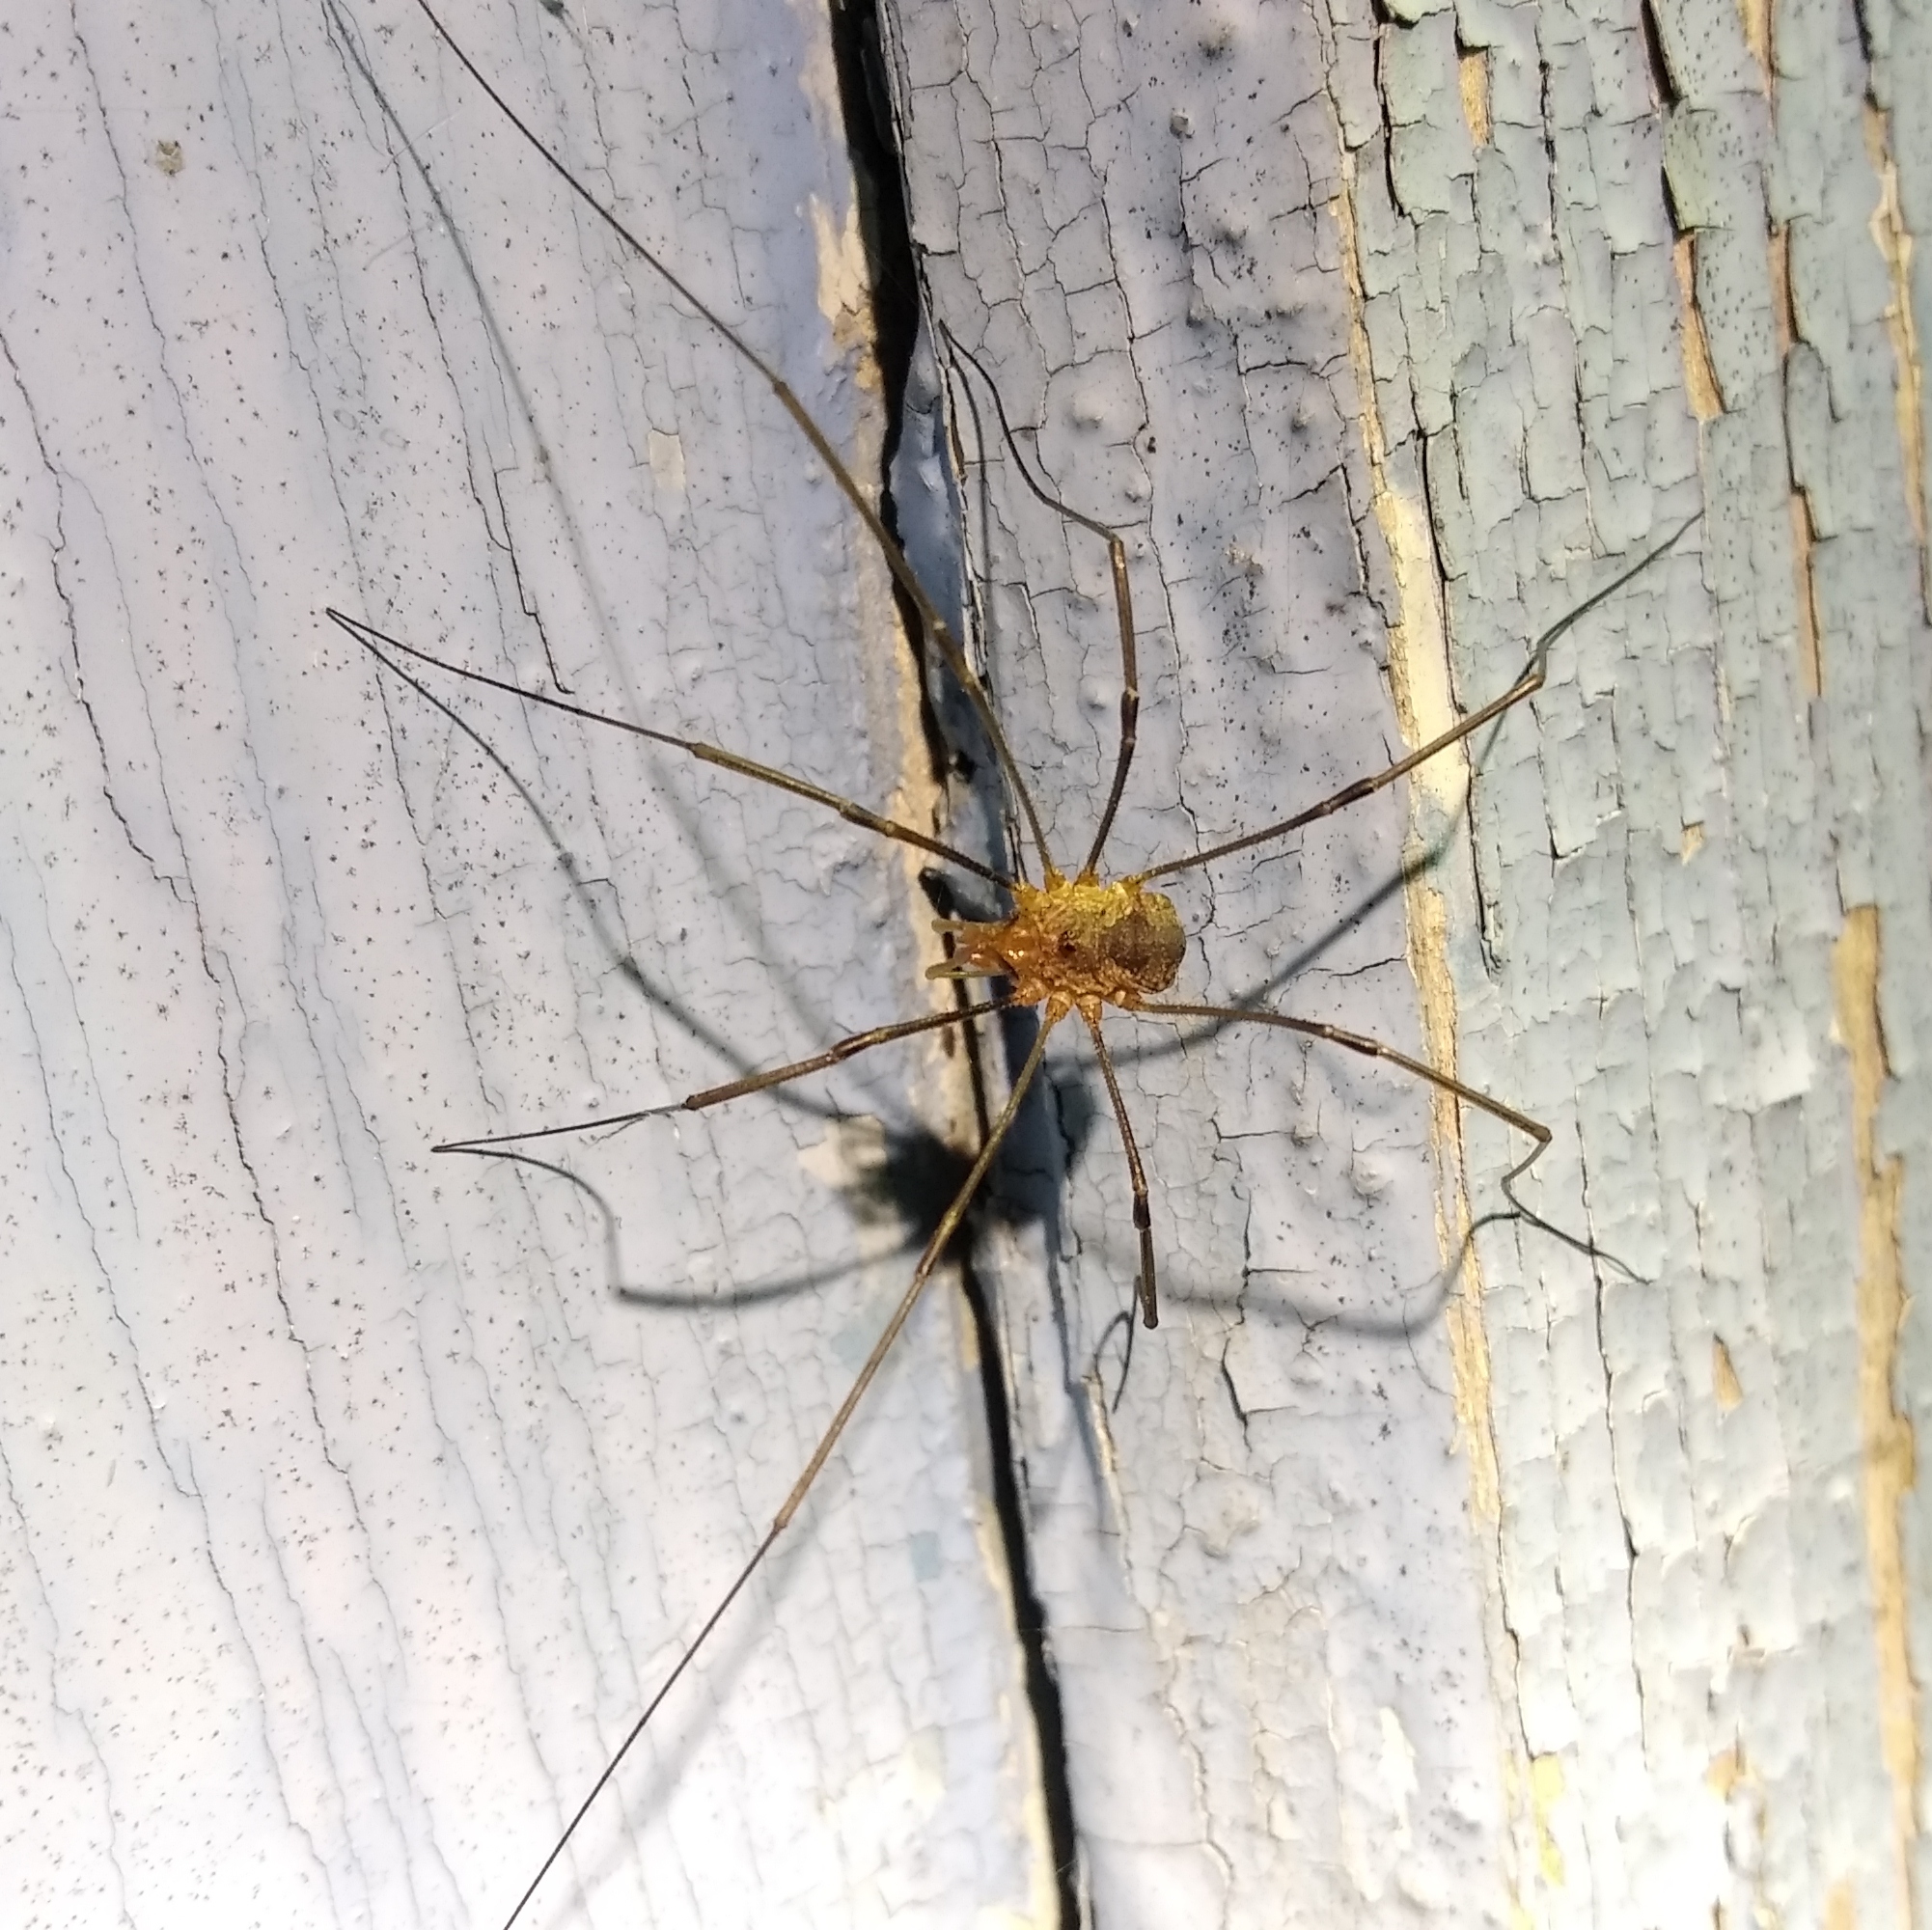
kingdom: Animalia
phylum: Arthropoda
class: Arachnida
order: Opiliones
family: Phalangiidae
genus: Phalangium
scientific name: Phalangium opilio
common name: Daddy longleg
